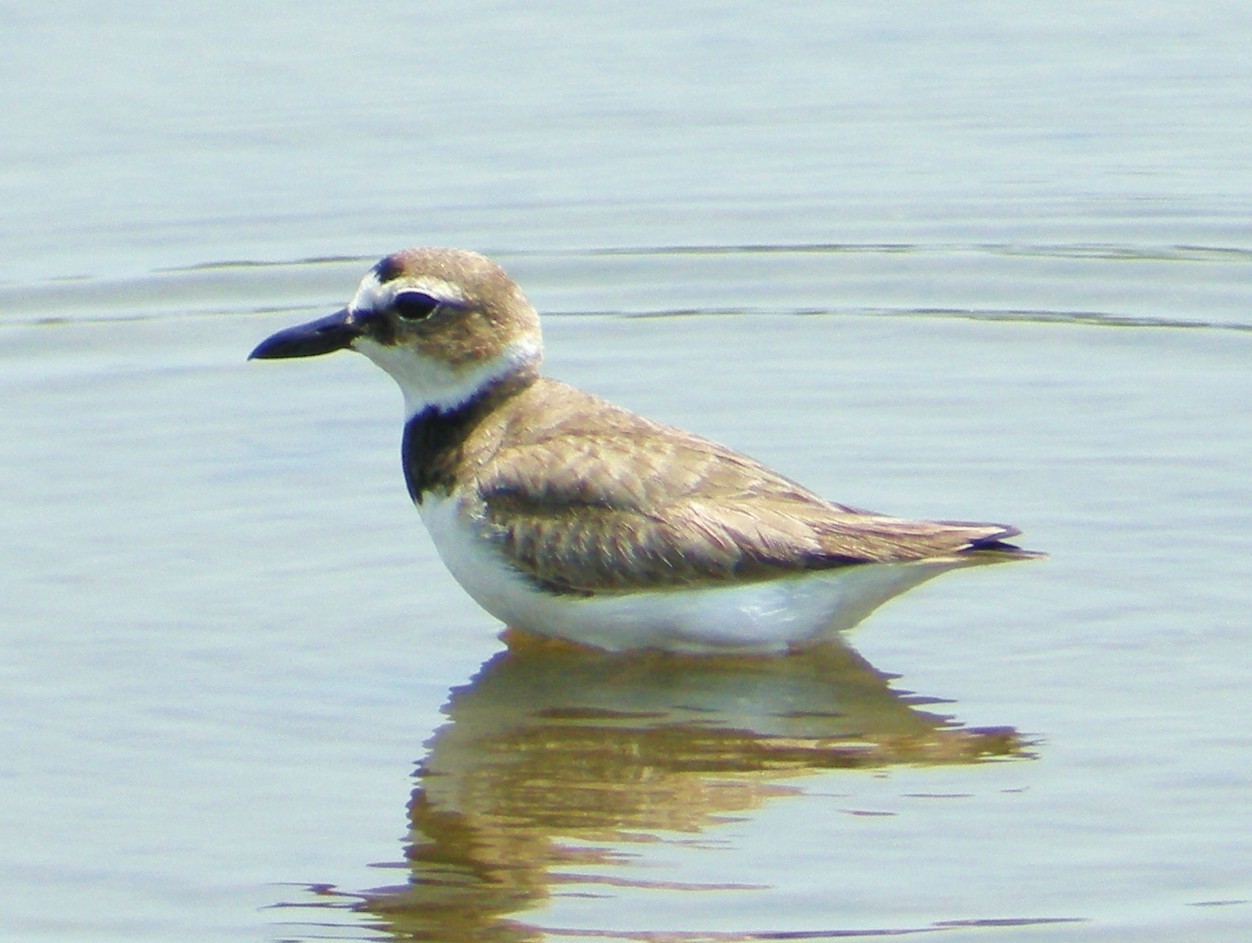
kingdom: Animalia
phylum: Chordata
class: Aves
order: Charadriiformes
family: Charadriidae
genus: Anarhynchus
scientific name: Anarhynchus
